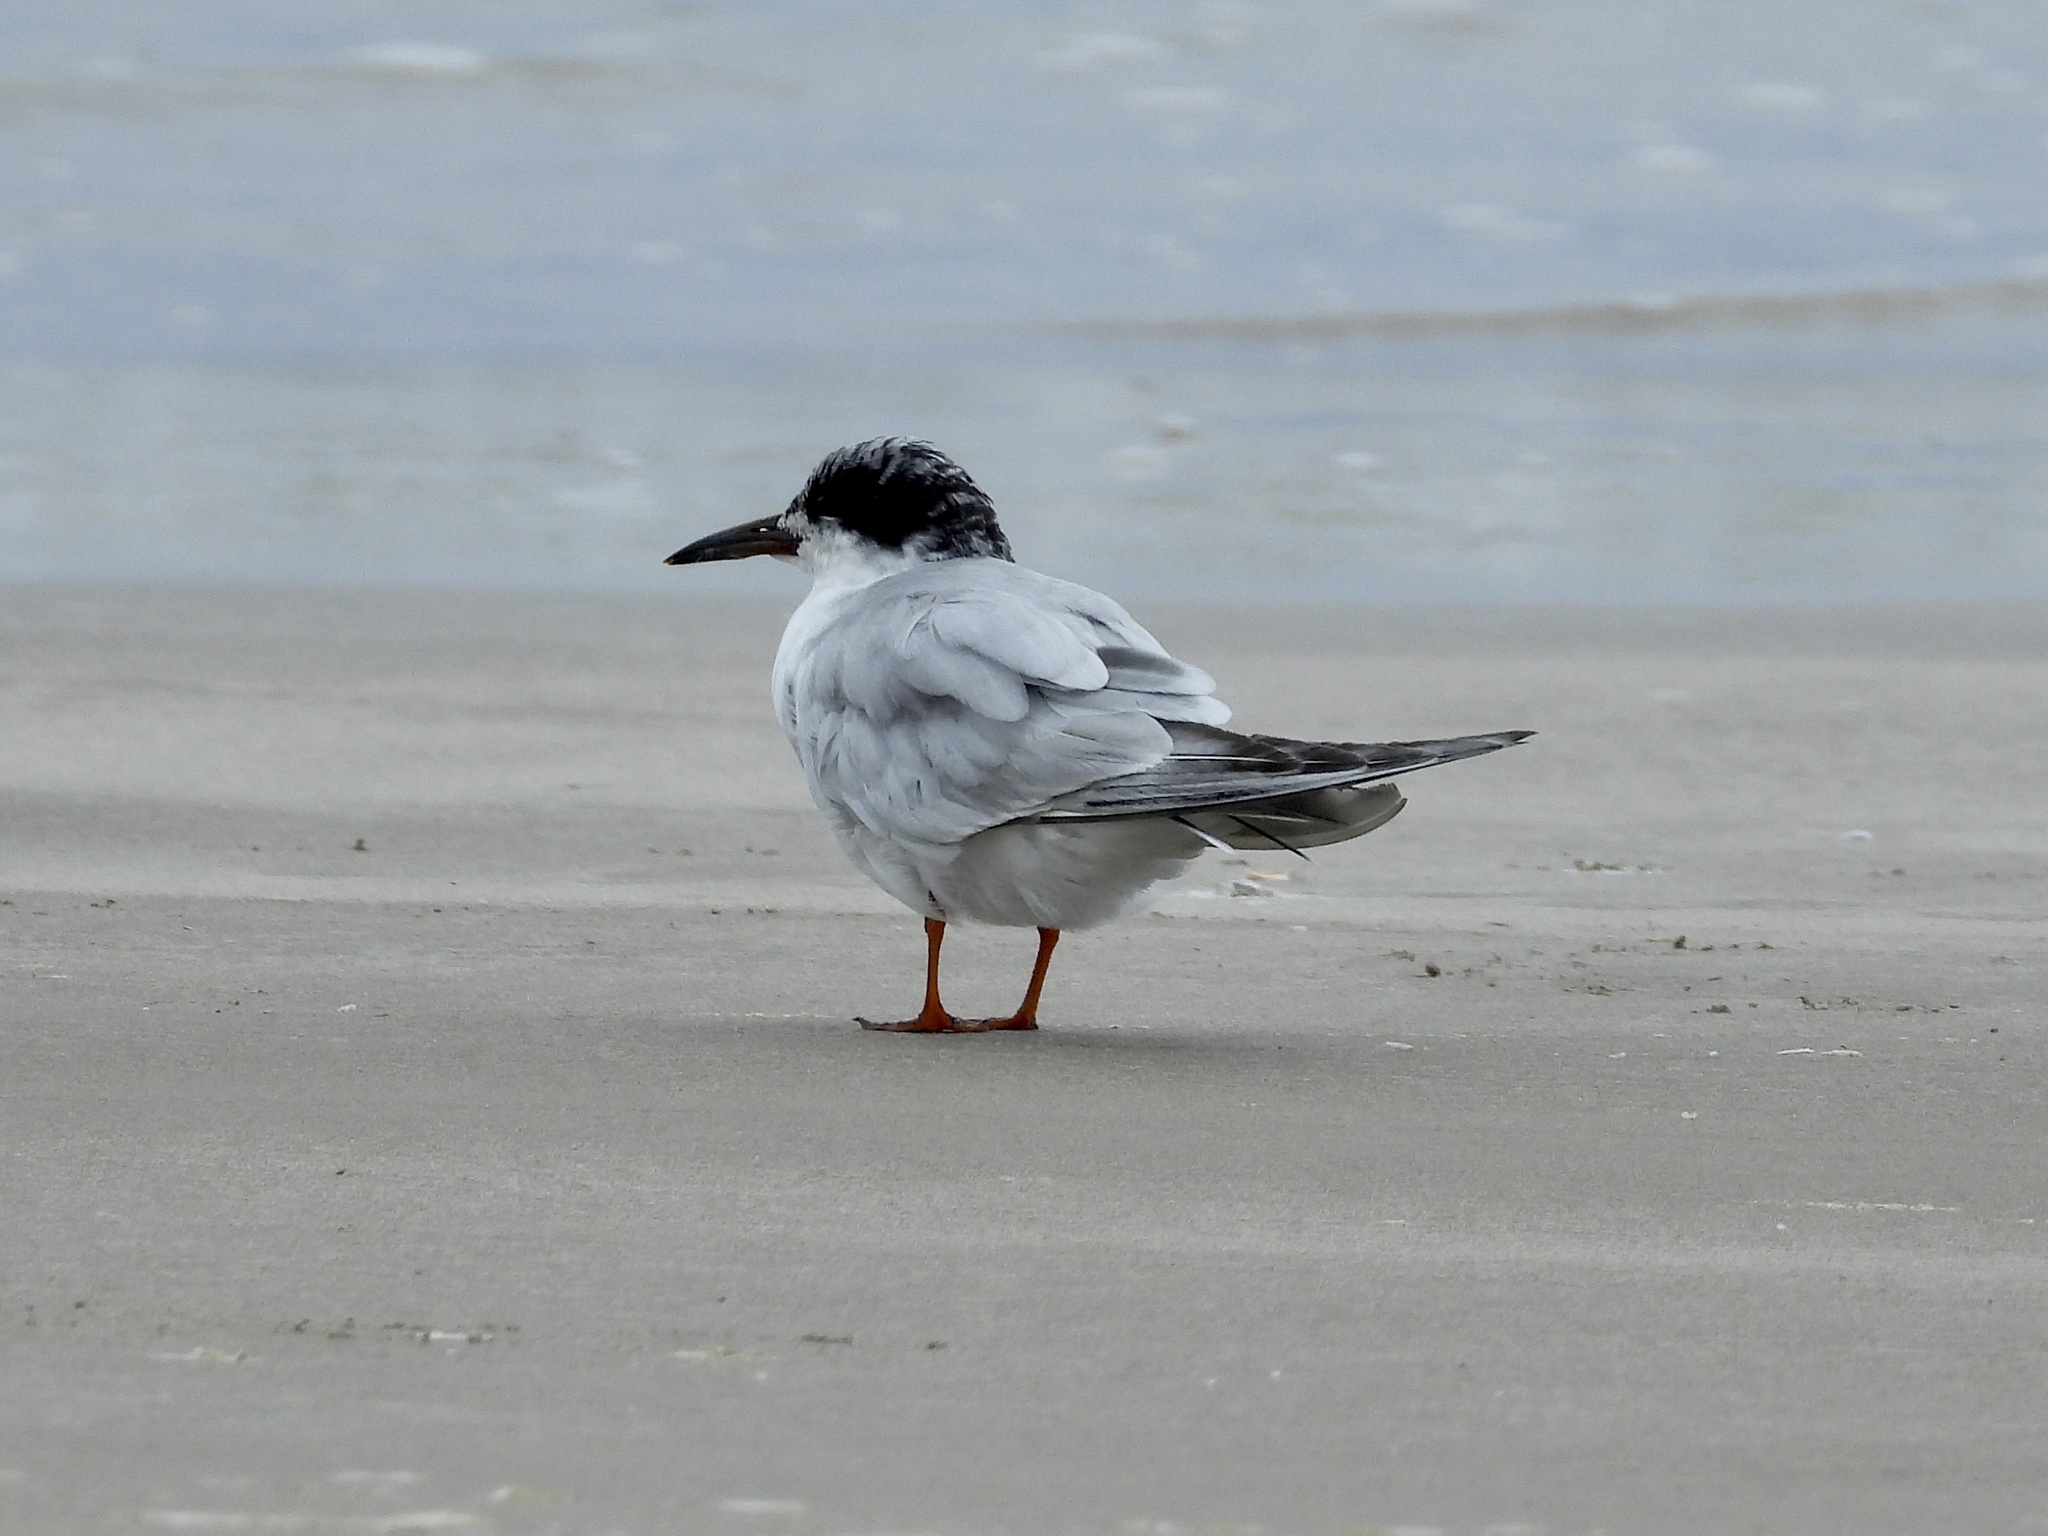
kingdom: Animalia
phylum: Chordata
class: Aves
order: Charadriiformes
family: Laridae
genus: Sterna
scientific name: Sterna forsteri
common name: Forster's tern
